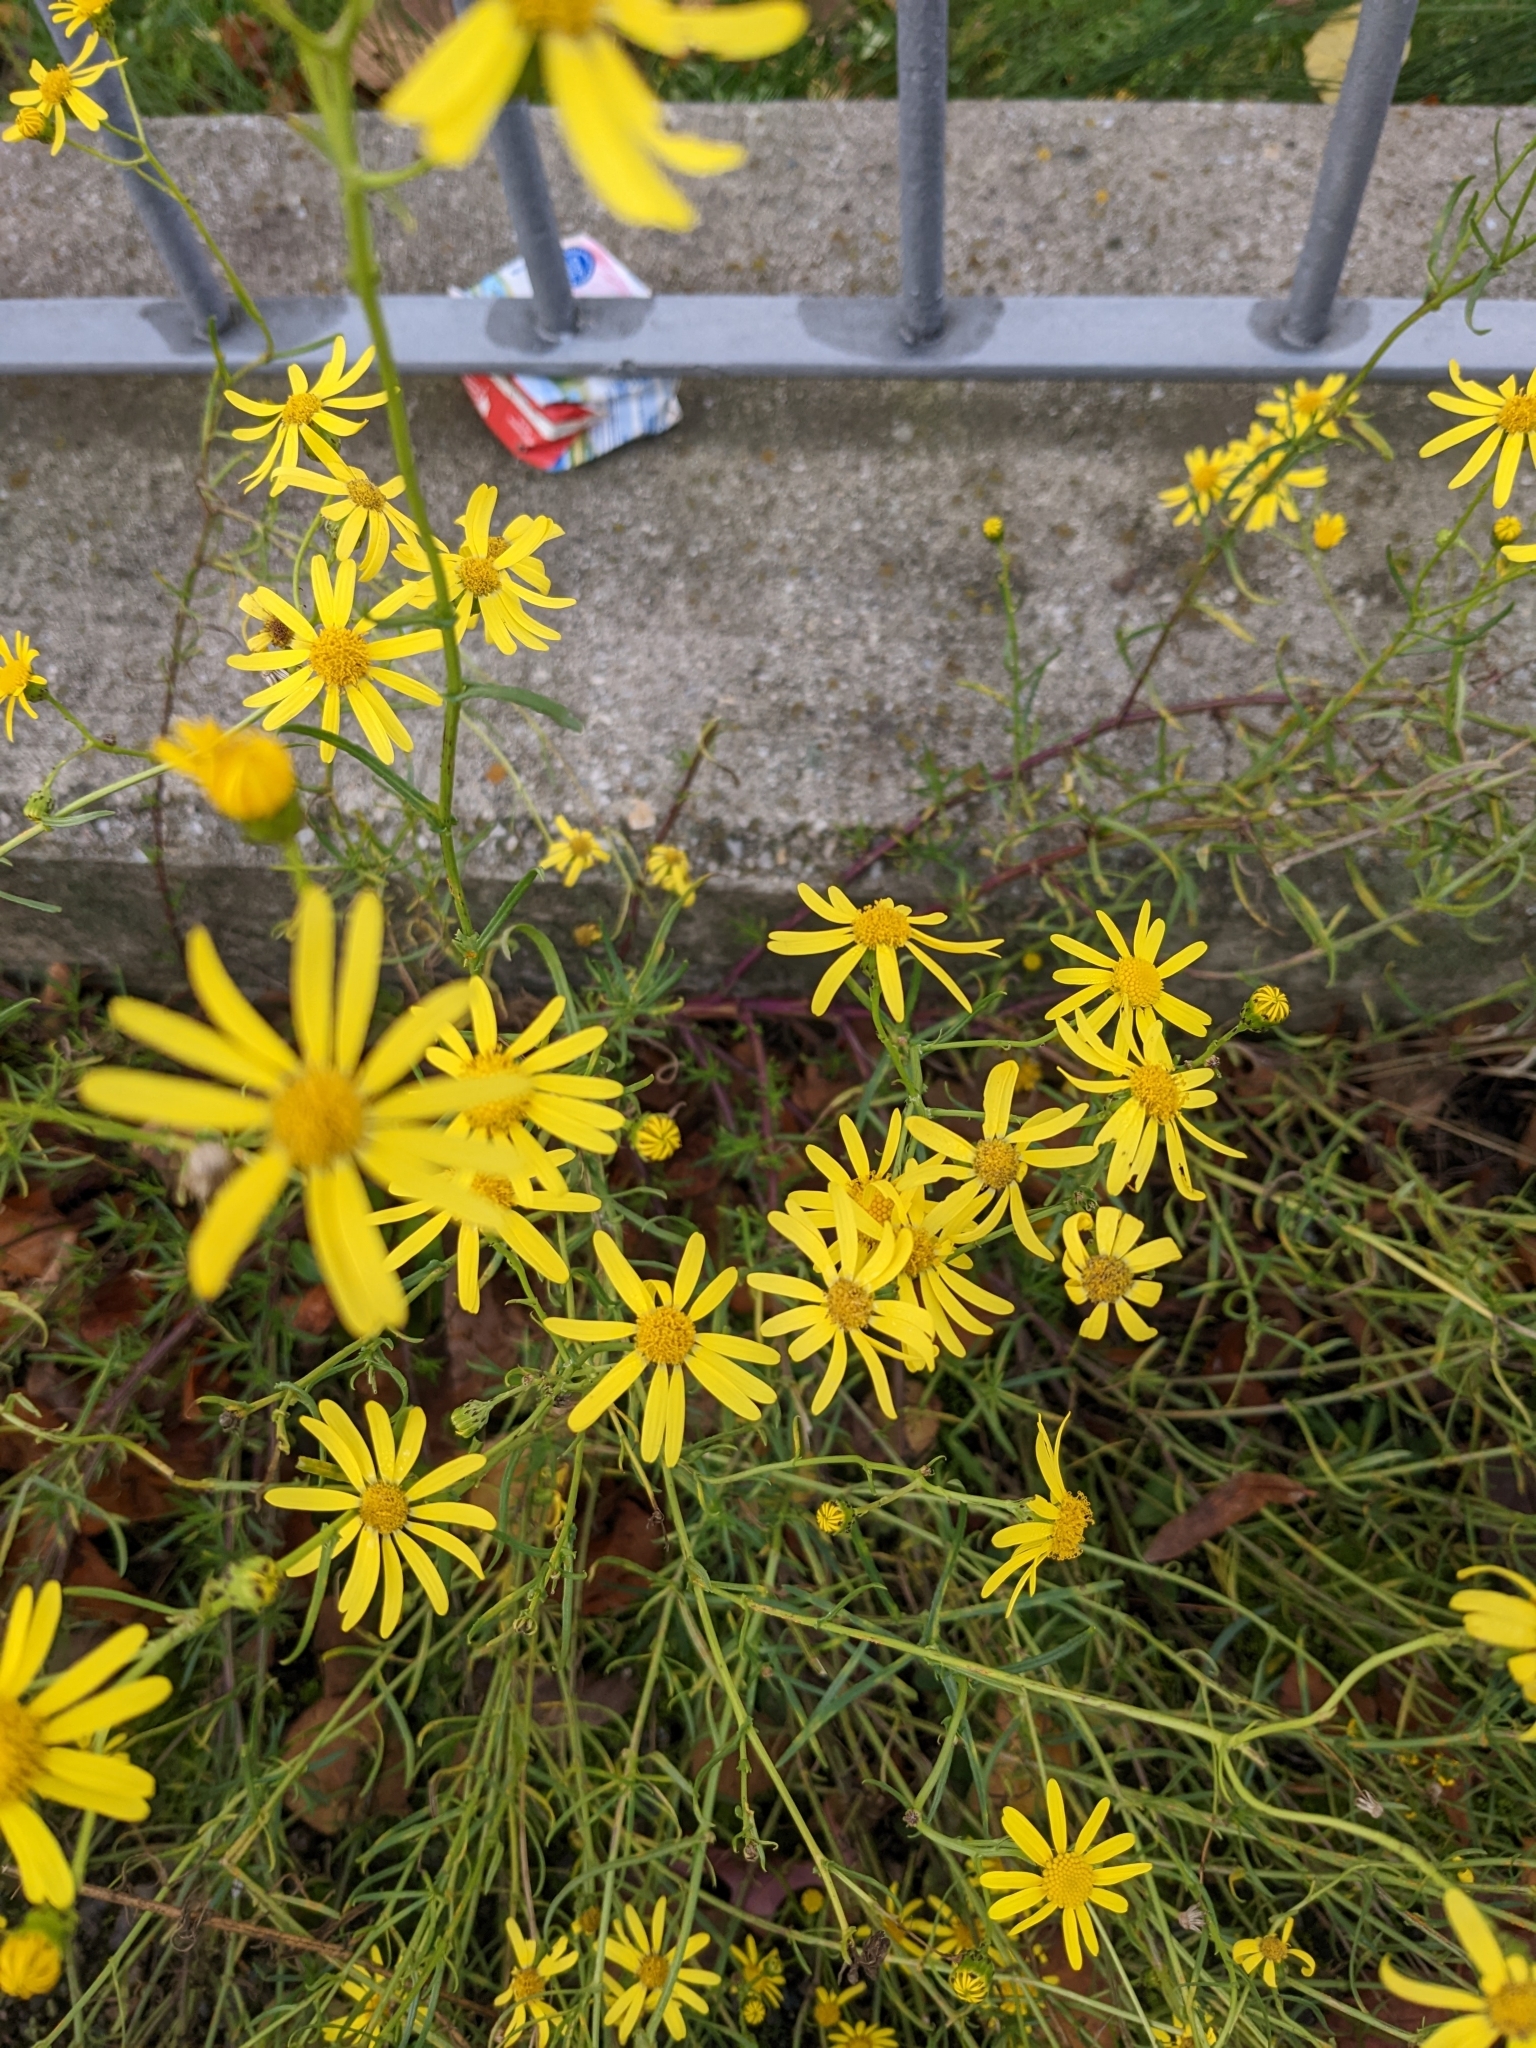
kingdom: Plantae
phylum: Tracheophyta
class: Magnoliopsida
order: Asterales
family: Asteraceae
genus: Senecio
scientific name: Senecio inaequidens
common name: Narrow-leaved ragwort
